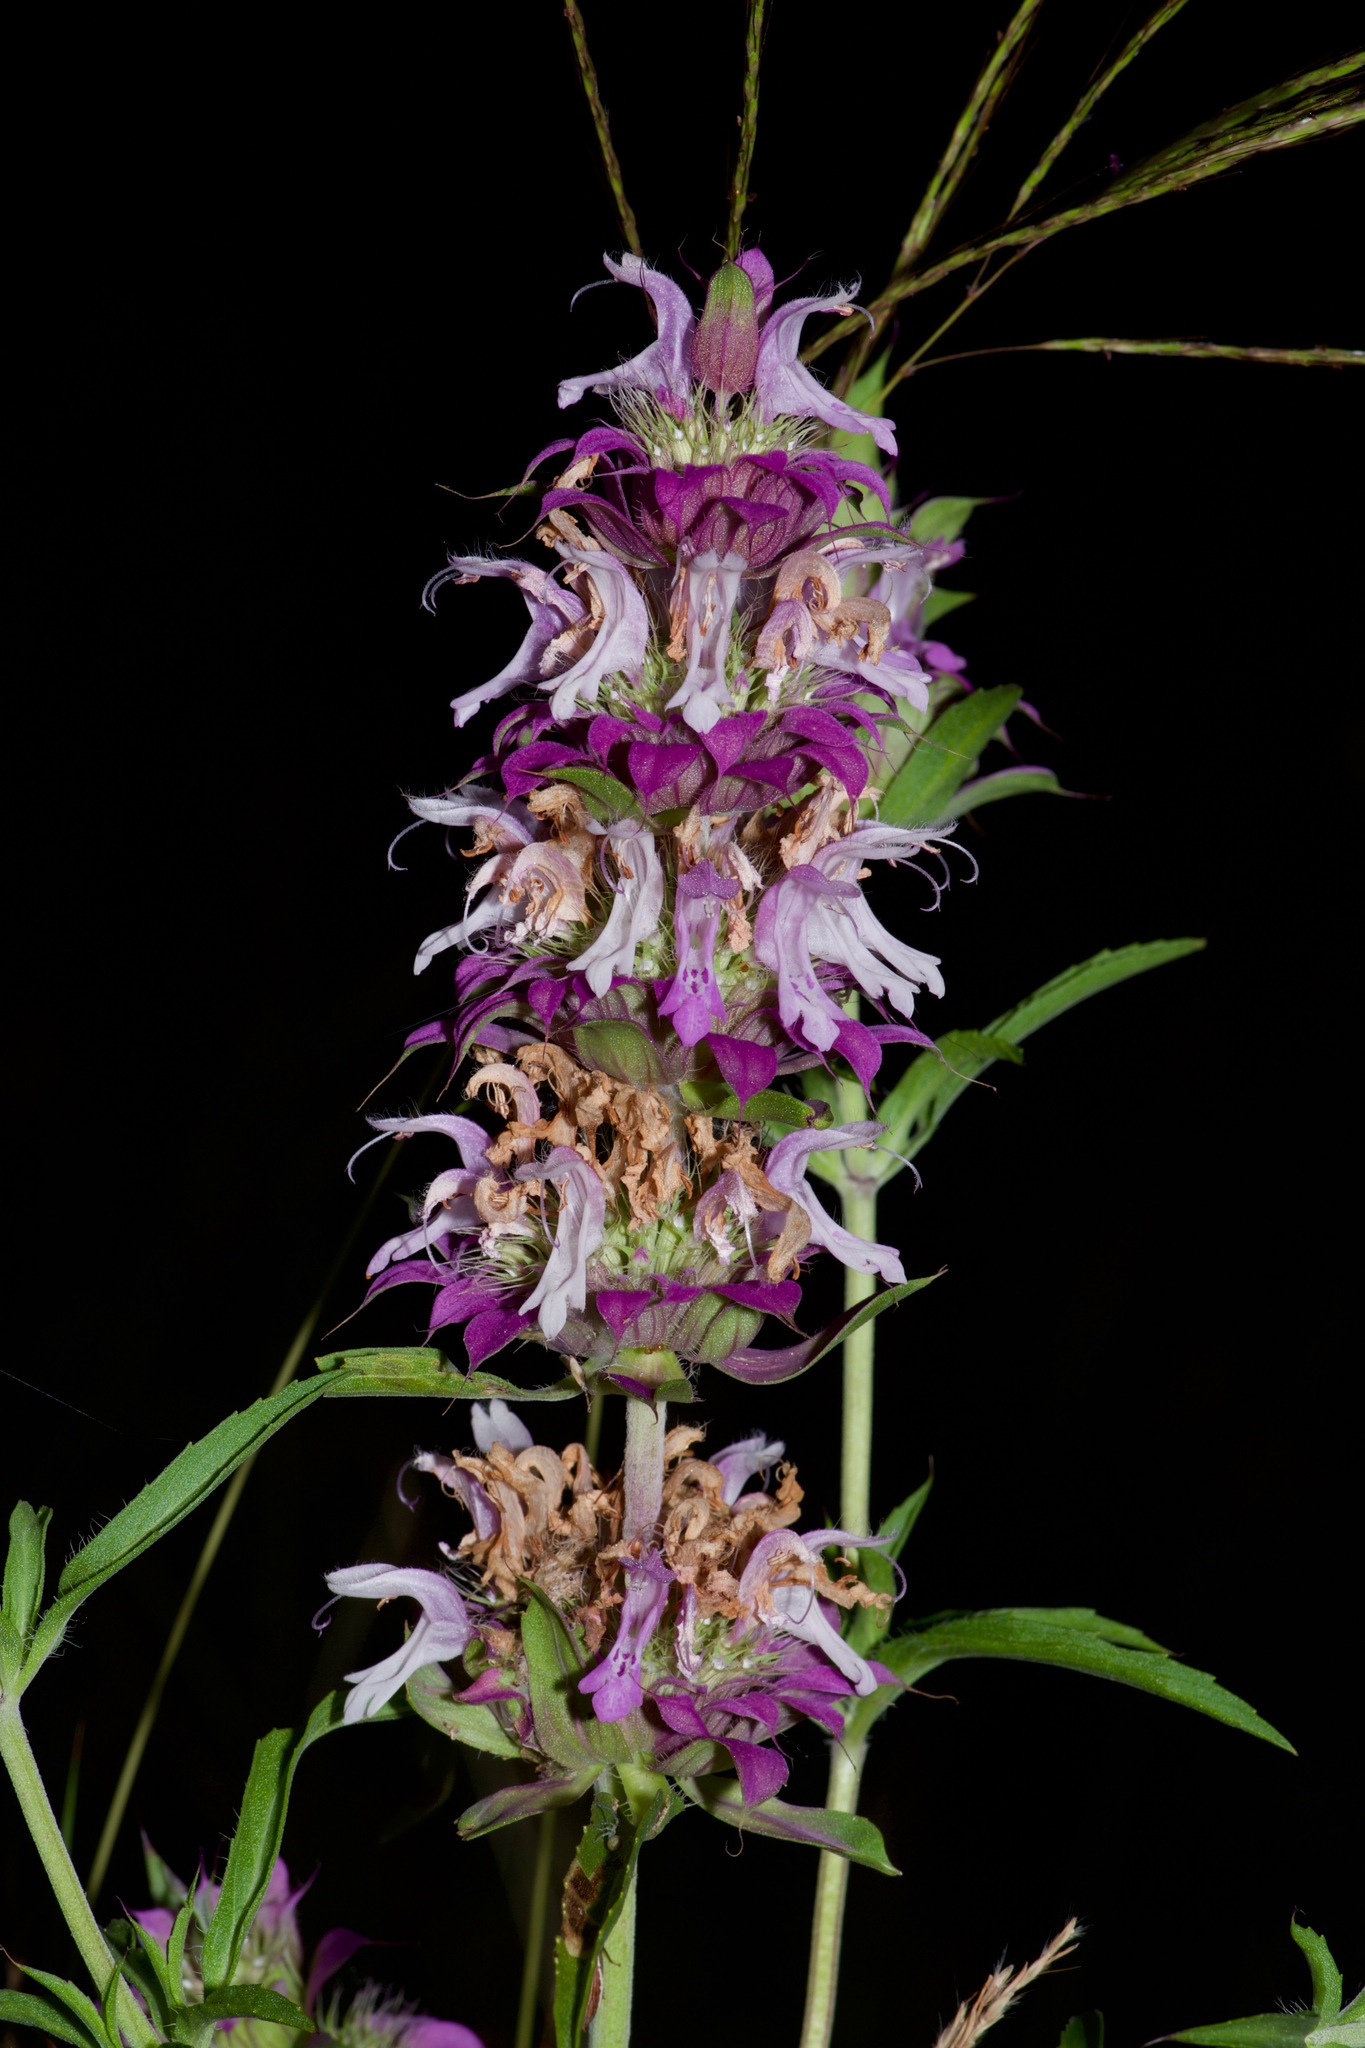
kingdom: Plantae
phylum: Tracheophyta
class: Magnoliopsida
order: Lamiales
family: Lamiaceae
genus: Monarda
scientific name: Monarda citriodora
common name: Lemon beebalm
